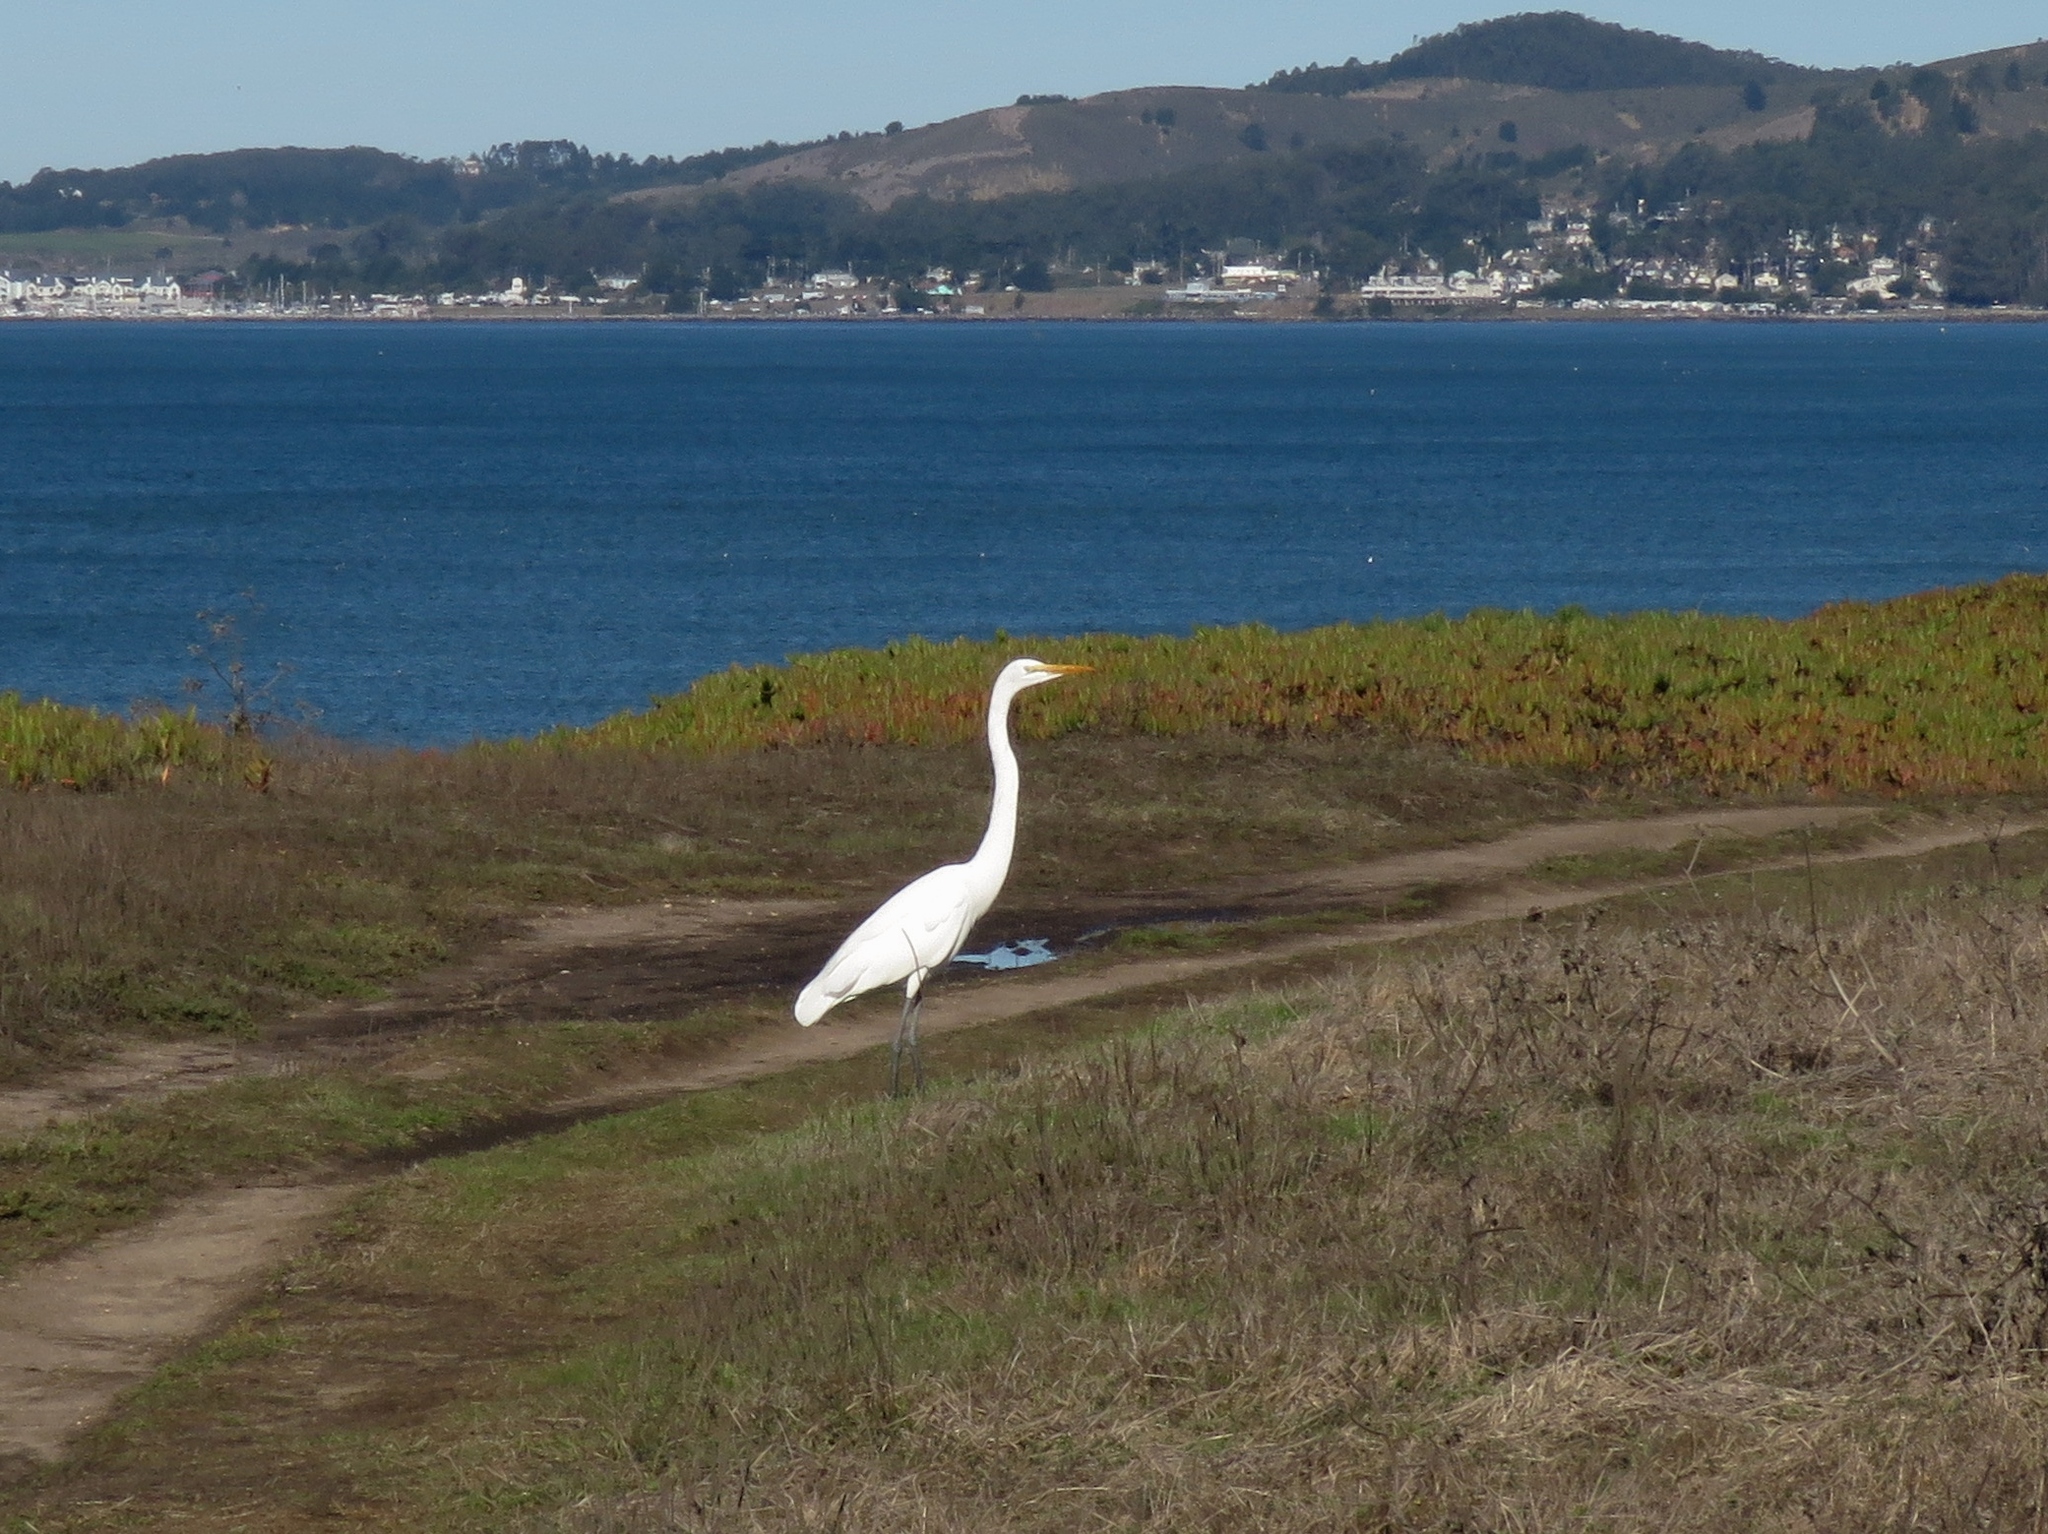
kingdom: Animalia
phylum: Chordata
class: Aves
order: Pelecaniformes
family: Ardeidae
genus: Ardea
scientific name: Ardea alba
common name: Great egret
